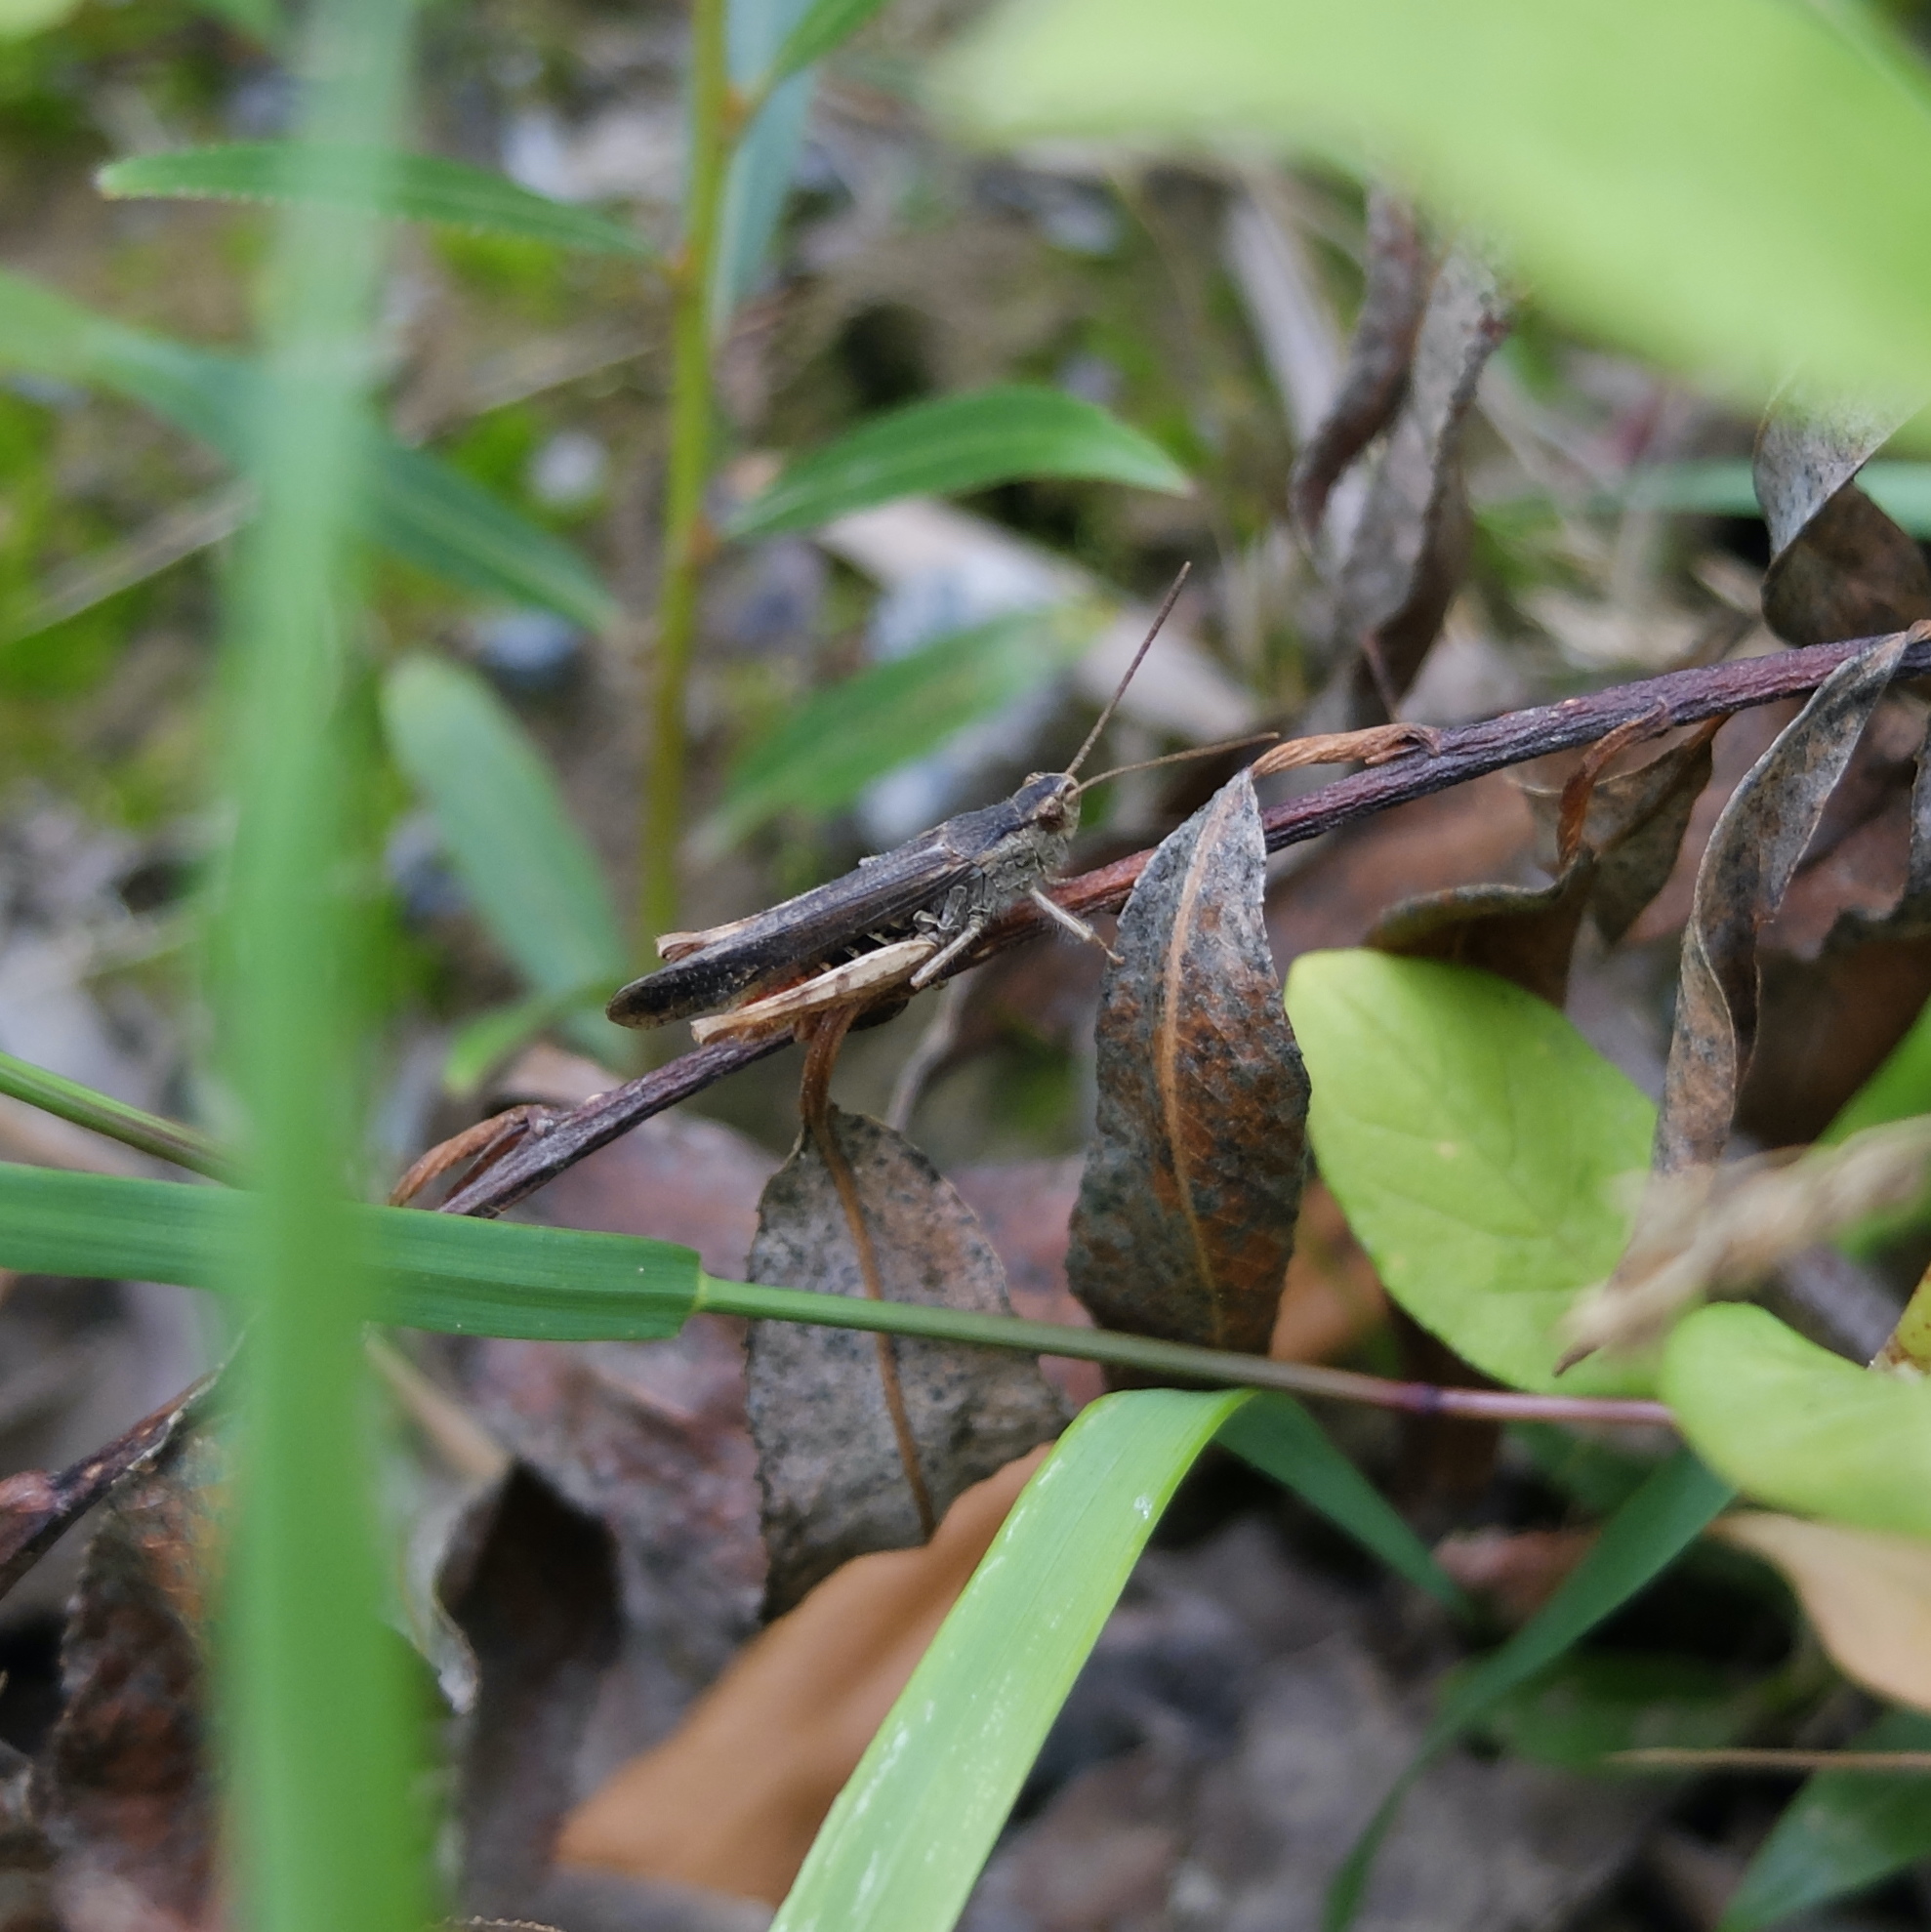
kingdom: Animalia
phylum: Arthropoda
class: Insecta
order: Orthoptera
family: Acrididae
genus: Chorthippus
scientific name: Chorthippus brunneus
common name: Field grasshopper
